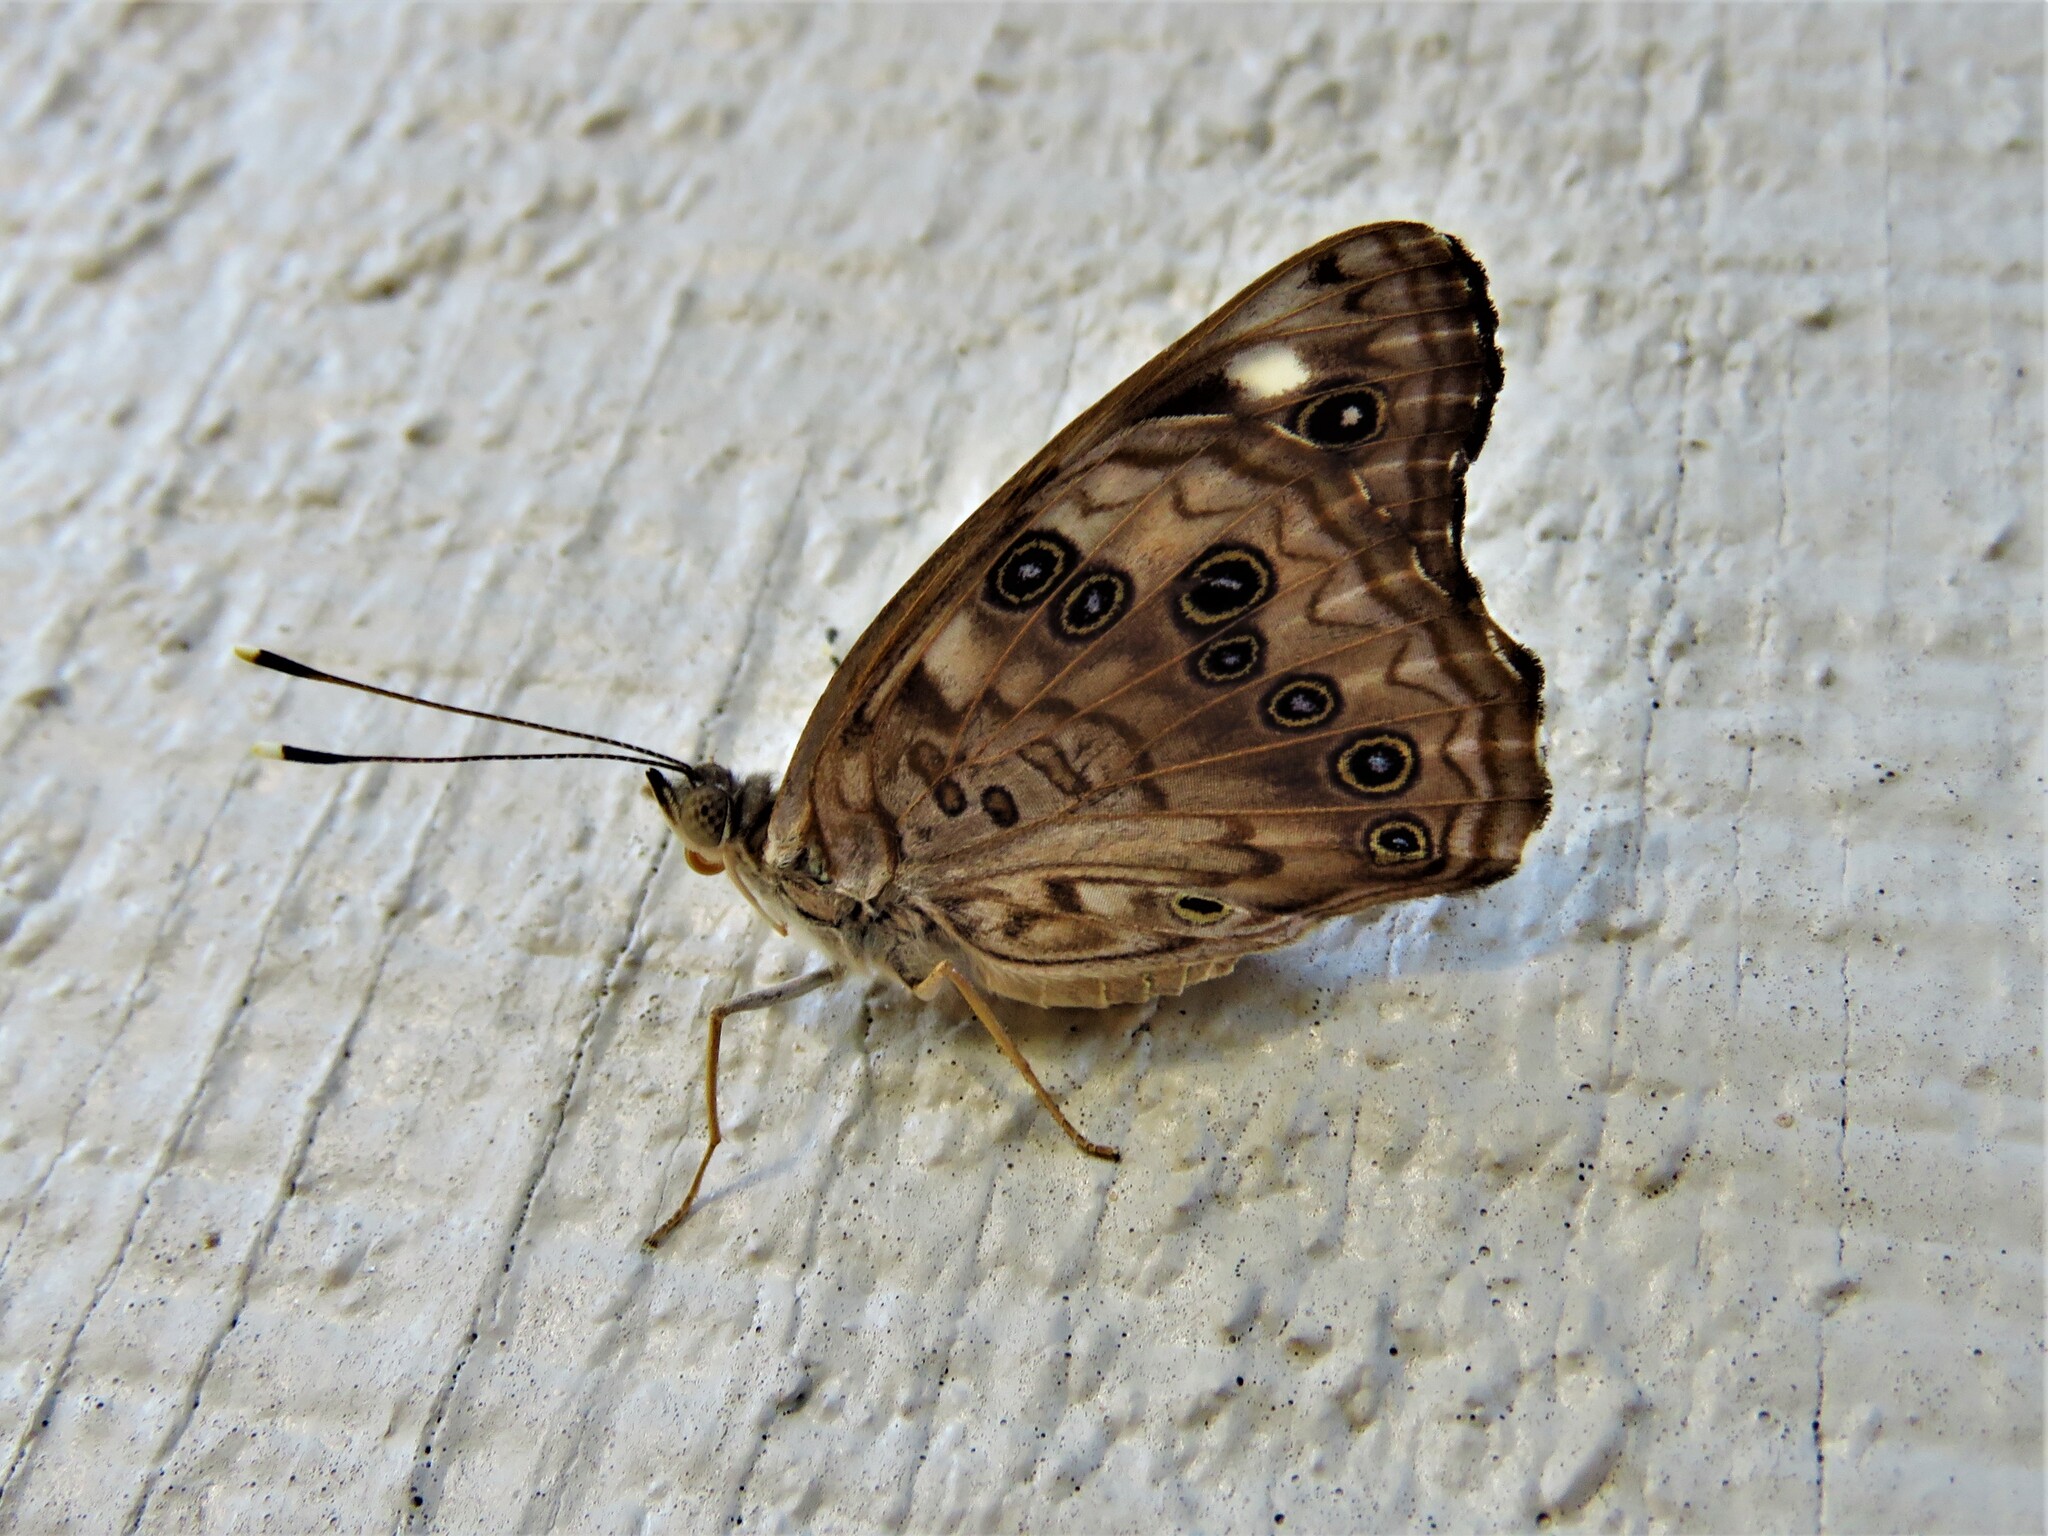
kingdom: Animalia
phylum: Arthropoda
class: Insecta
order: Lepidoptera
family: Nymphalidae
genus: Asterocampa
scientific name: Asterocampa celtis
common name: Hackberry emperor
